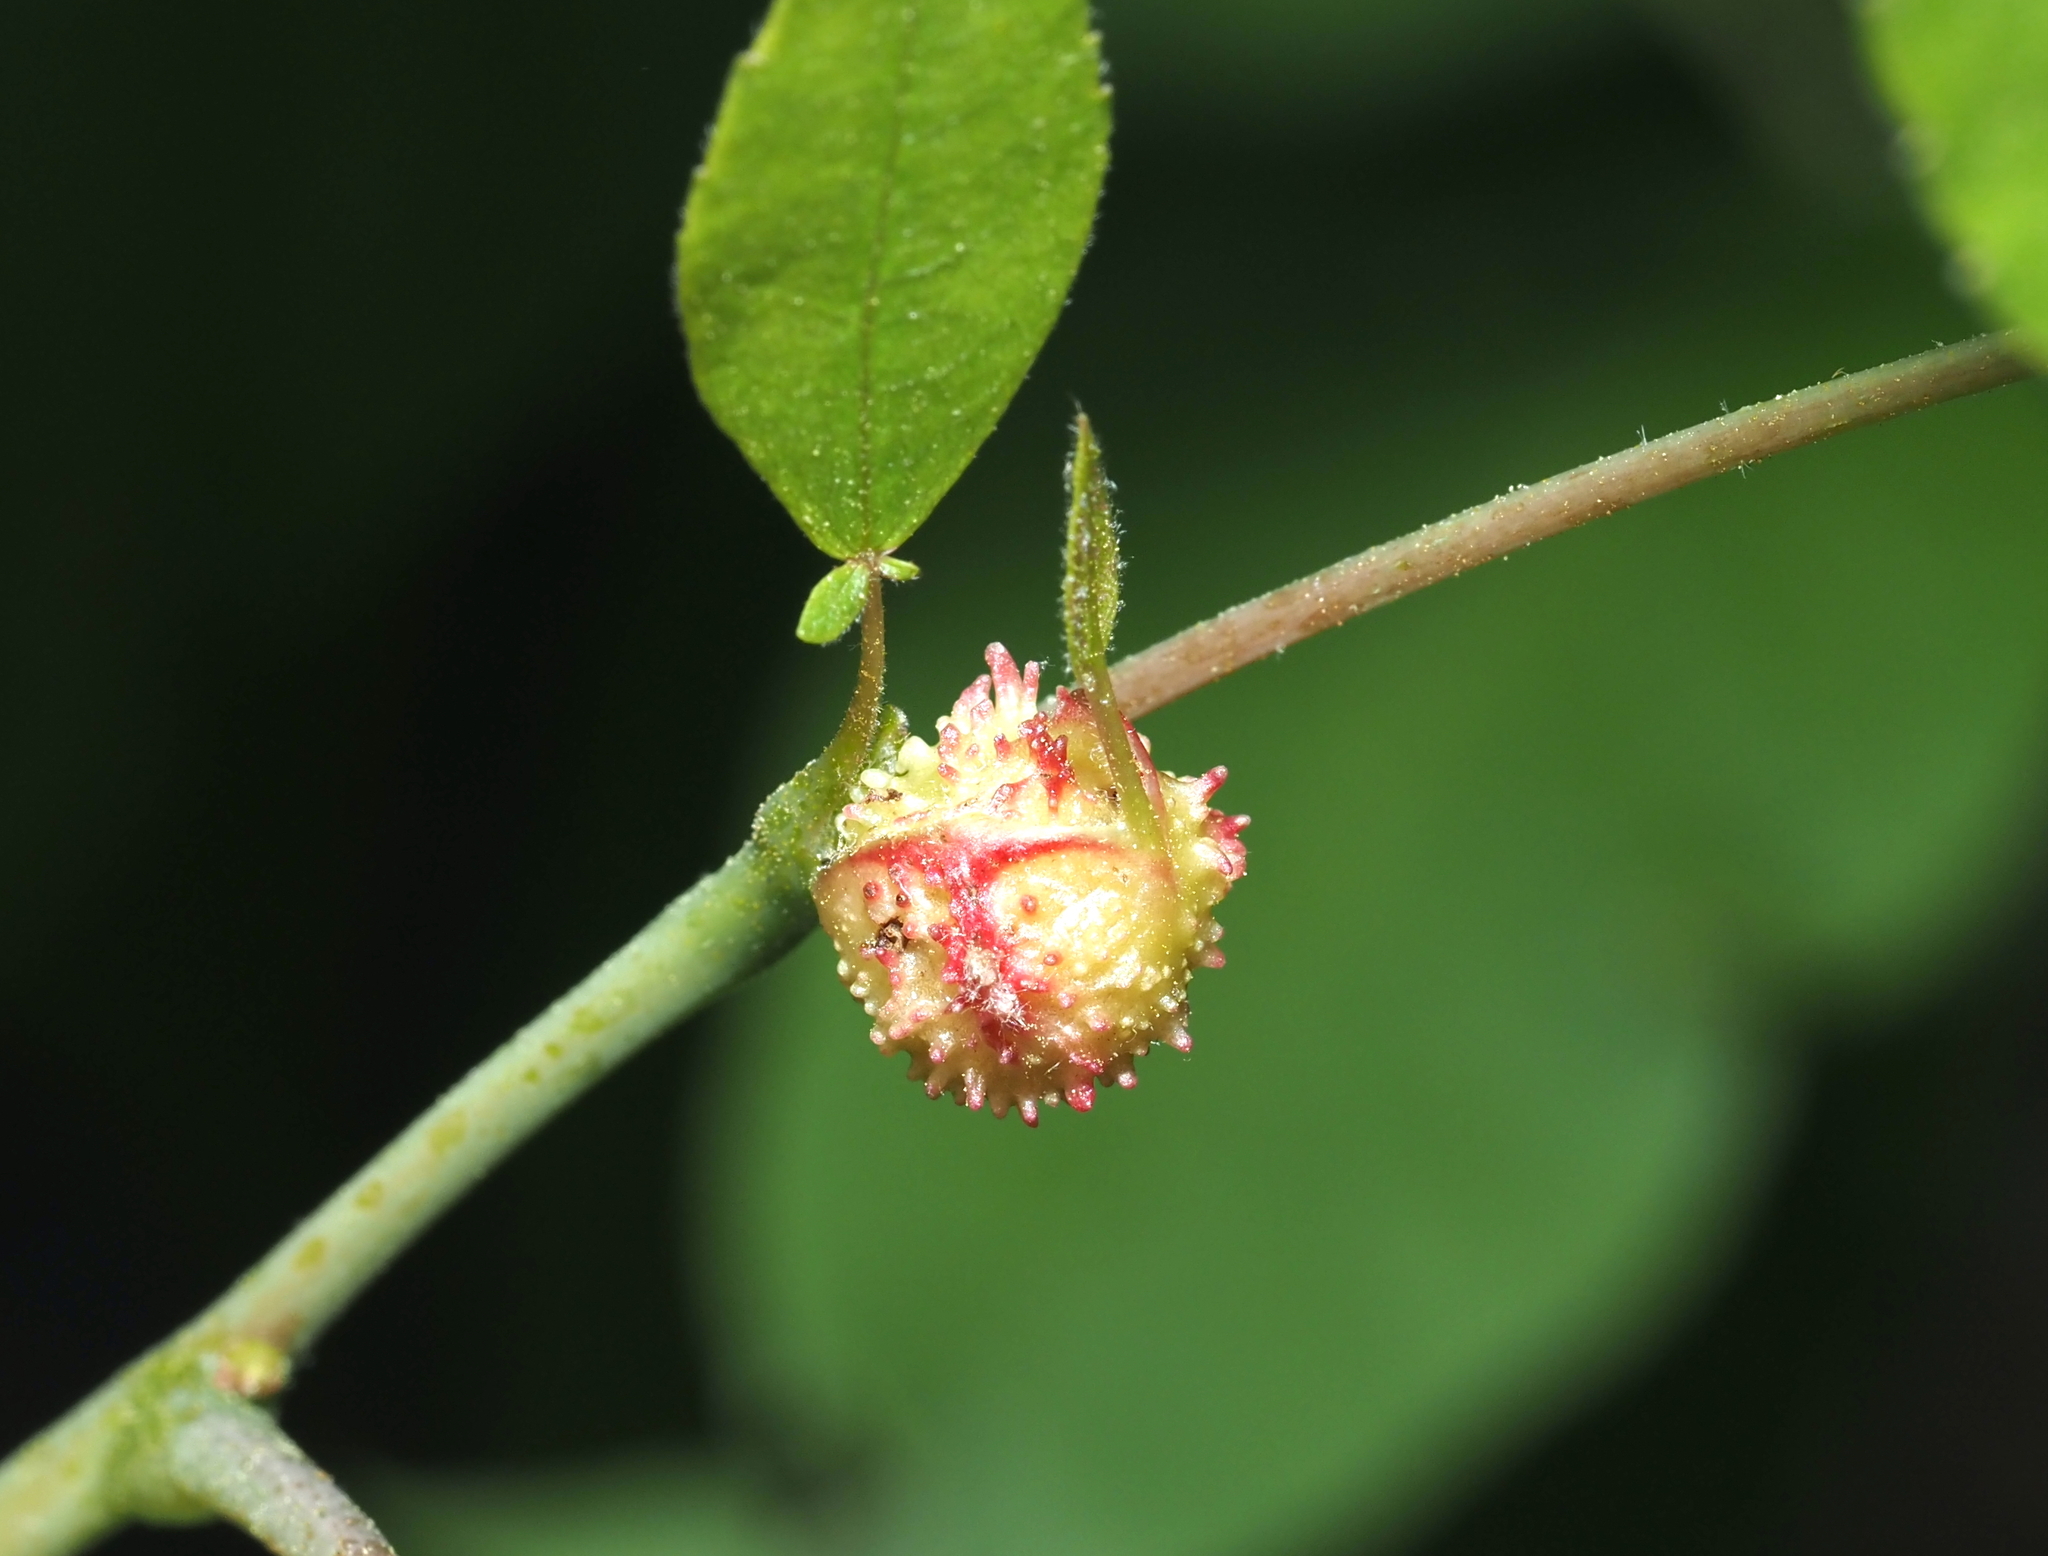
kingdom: Animalia
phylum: Arthropoda
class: Insecta
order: Hemiptera
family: Phylloxeridae
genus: Phylloxera
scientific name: Phylloxera spinosa
